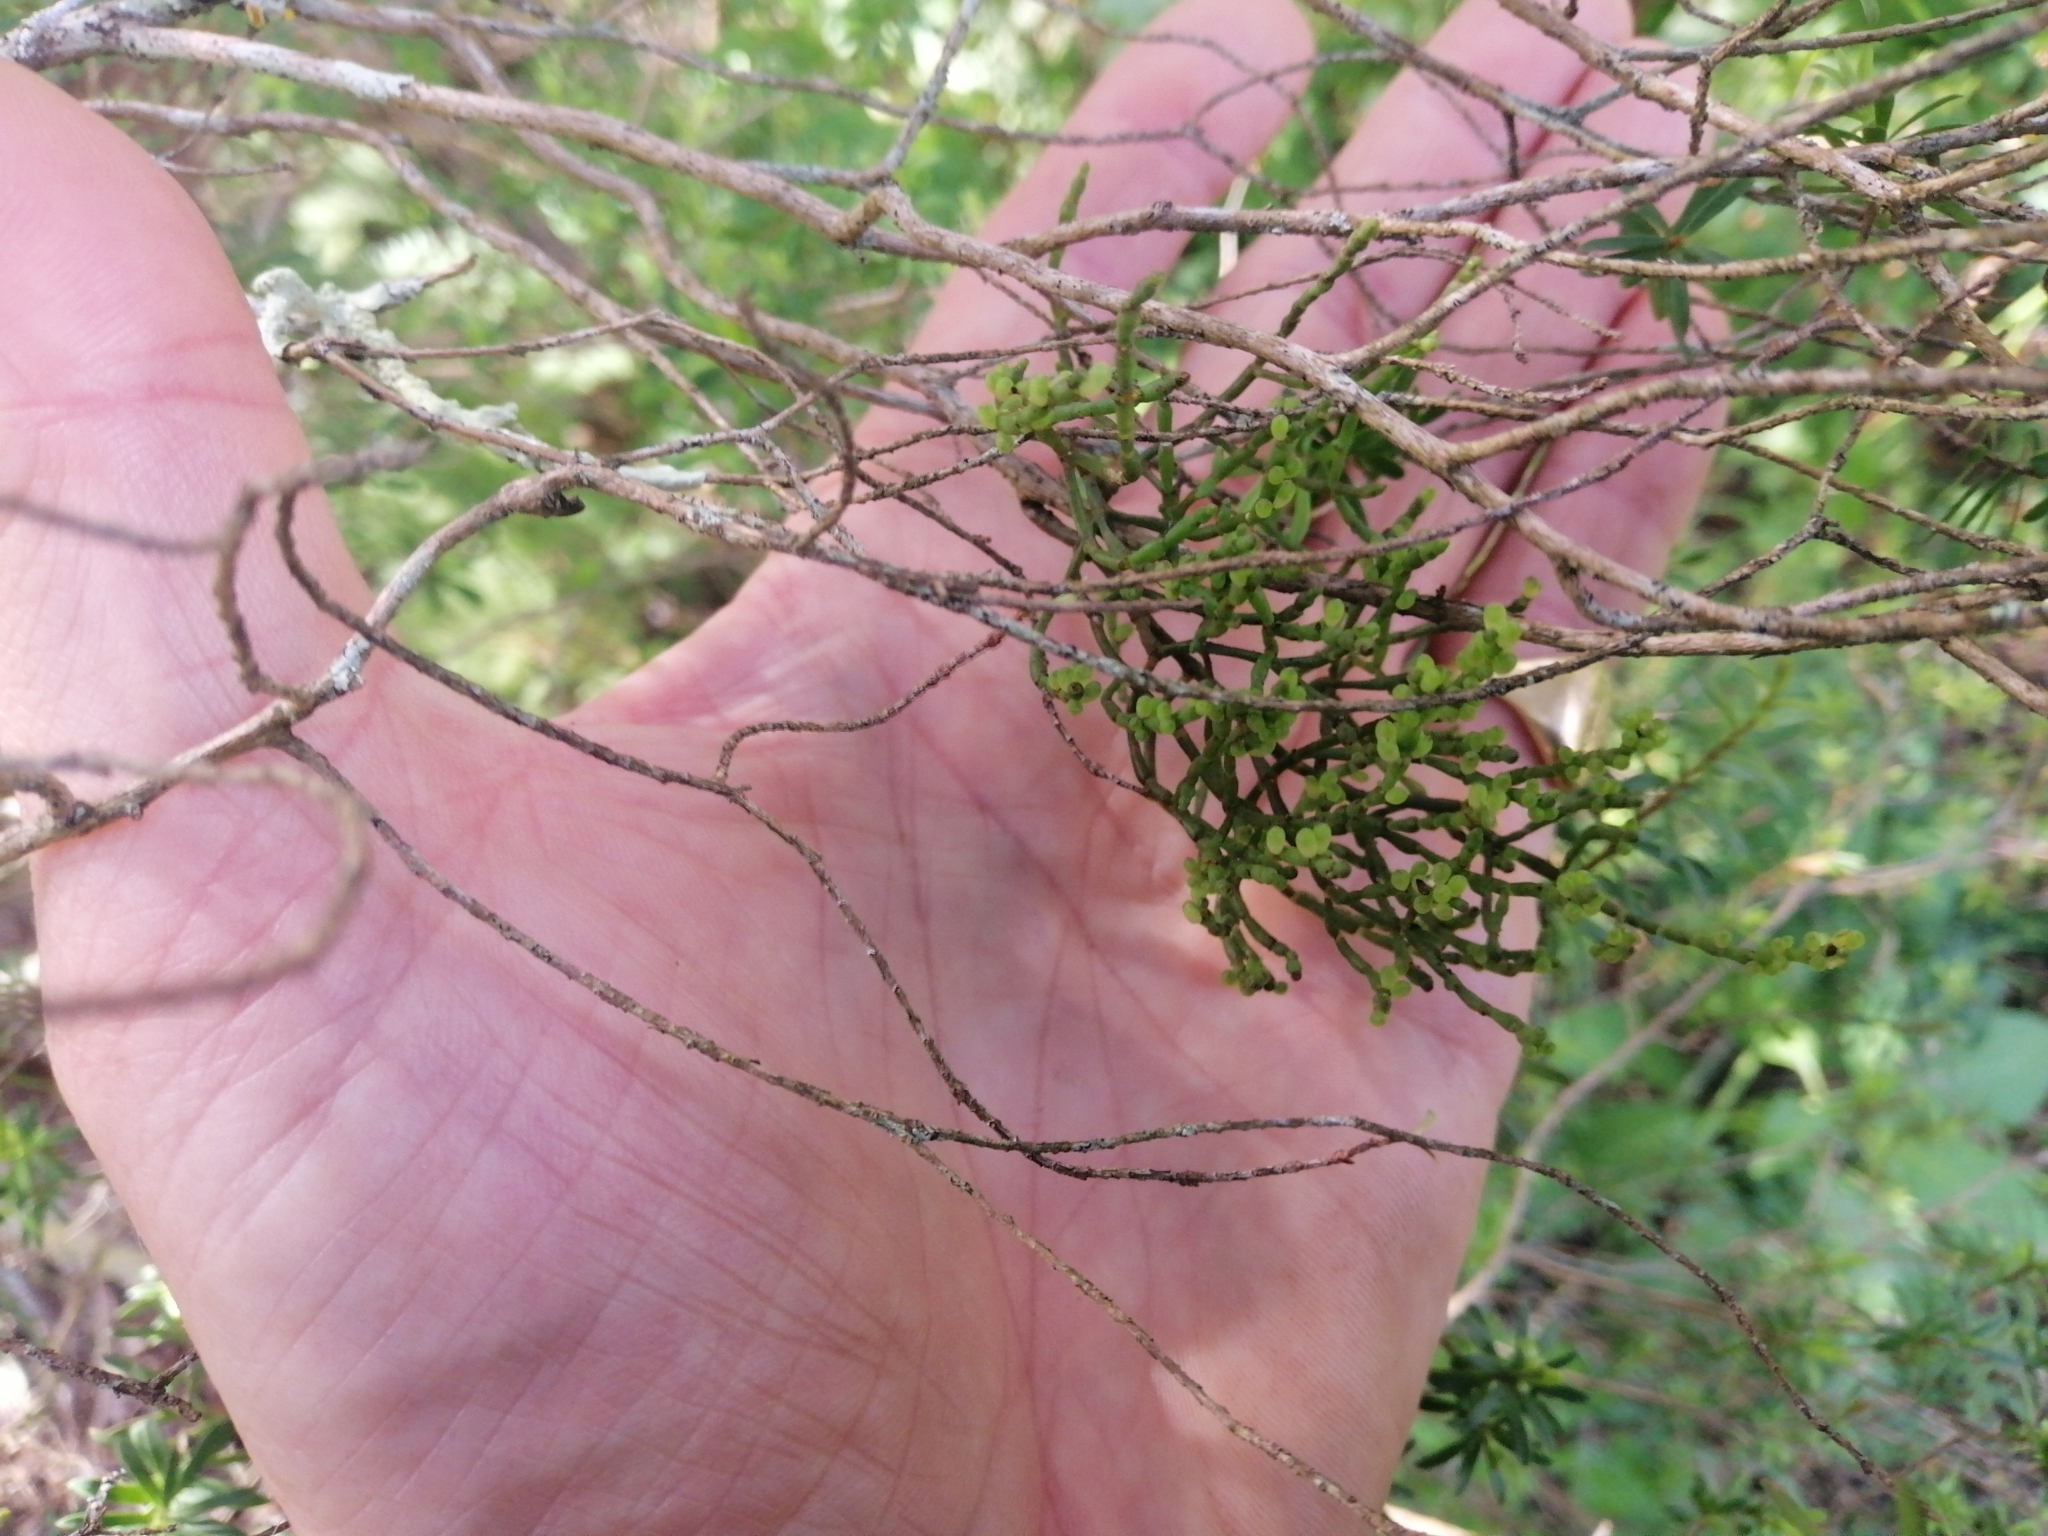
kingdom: Plantae
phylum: Tracheophyta
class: Magnoliopsida
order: Santalales
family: Viscaceae
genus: Korthalsella
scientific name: Korthalsella salicornioides
